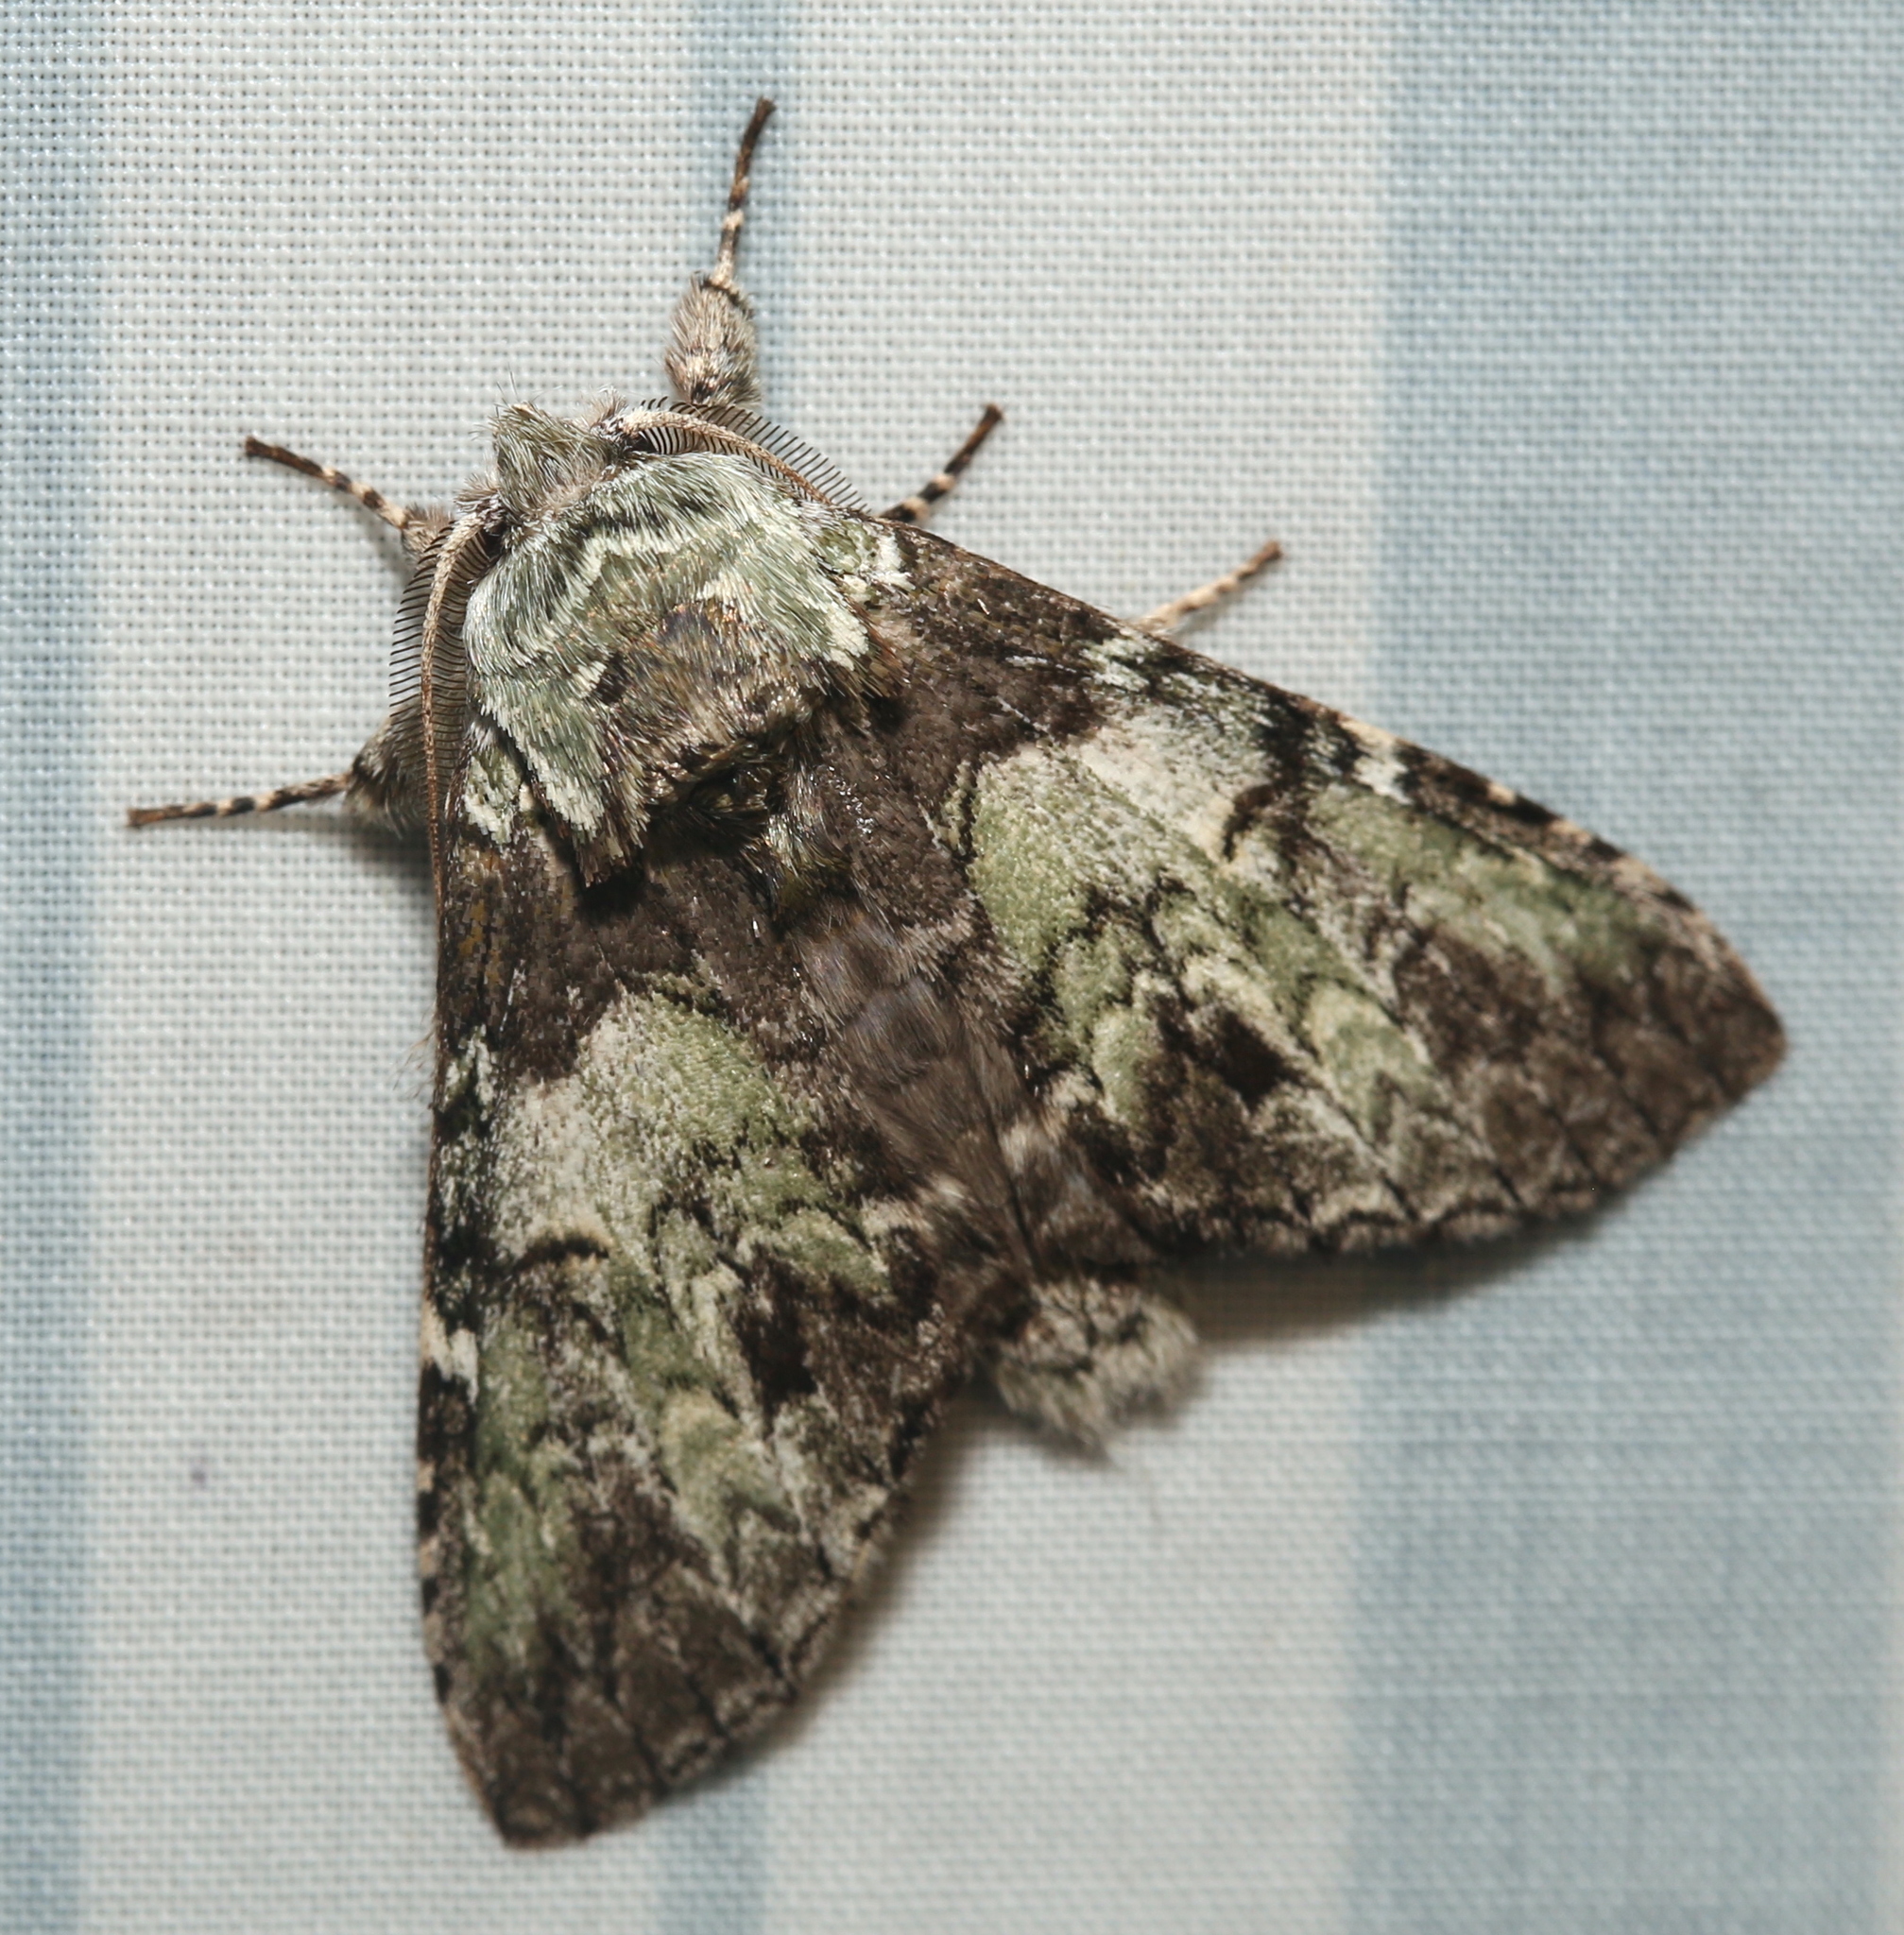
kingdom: Animalia
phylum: Arthropoda
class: Insecta
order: Lepidoptera
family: Notodontidae
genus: Macrurocampa
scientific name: Macrurocampa marthesia
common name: Mottled prominent
